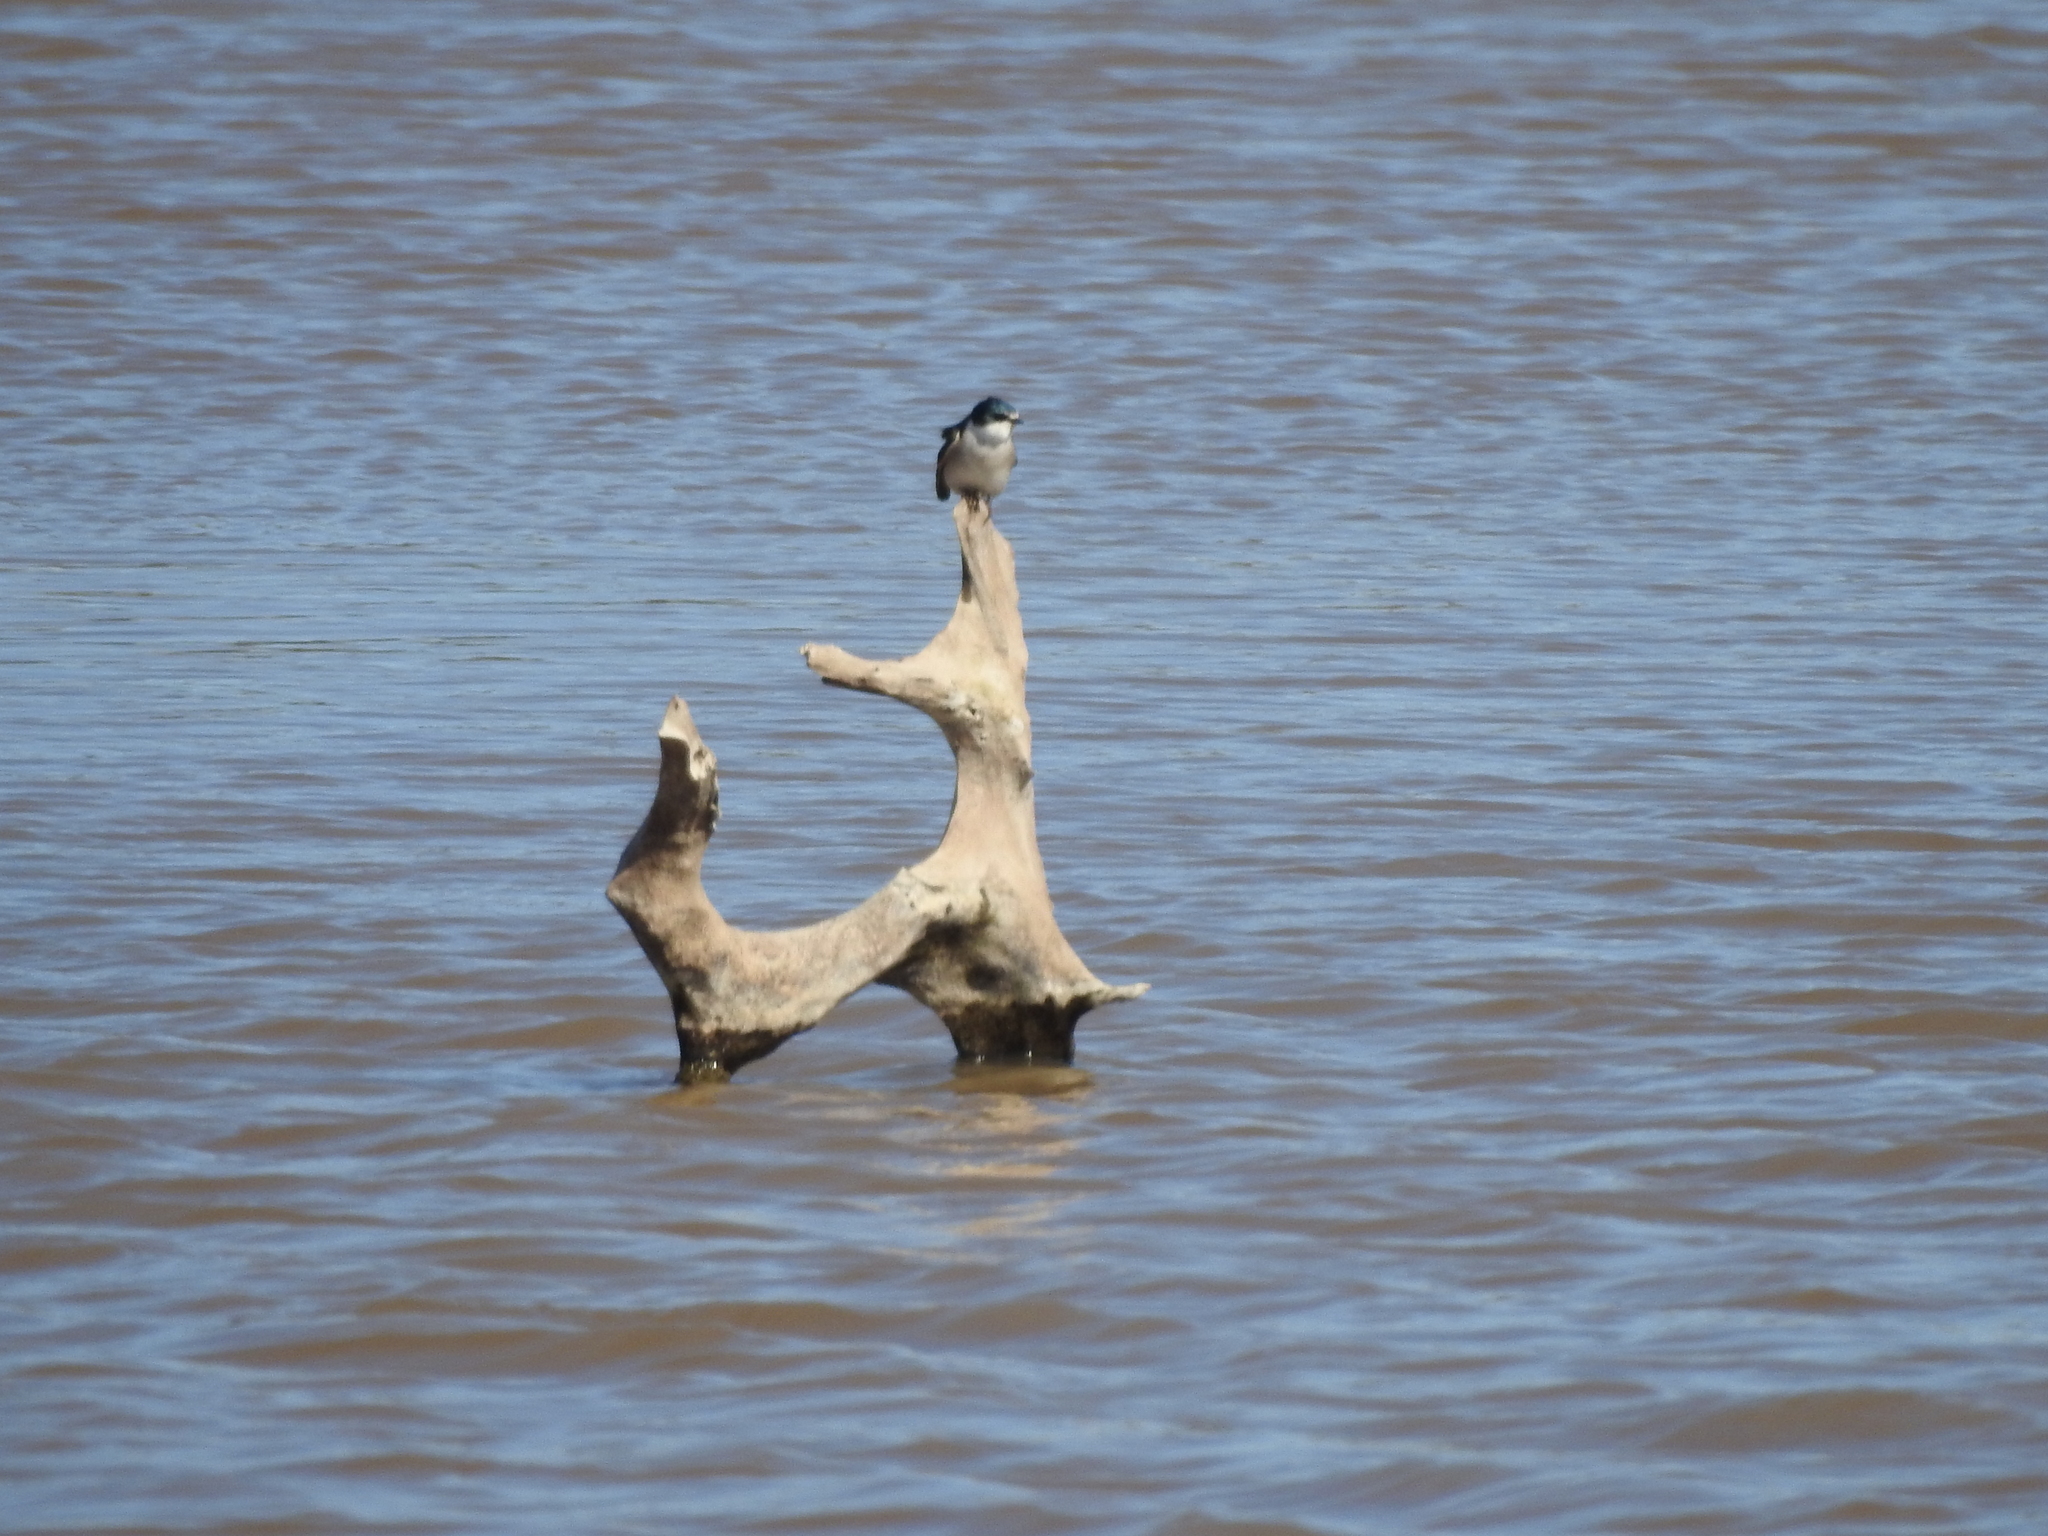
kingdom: Animalia
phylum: Chordata
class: Aves
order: Passeriformes
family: Hirundinidae
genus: Tachycineta
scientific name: Tachycineta leucorrhoa
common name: White-rumped swallow
